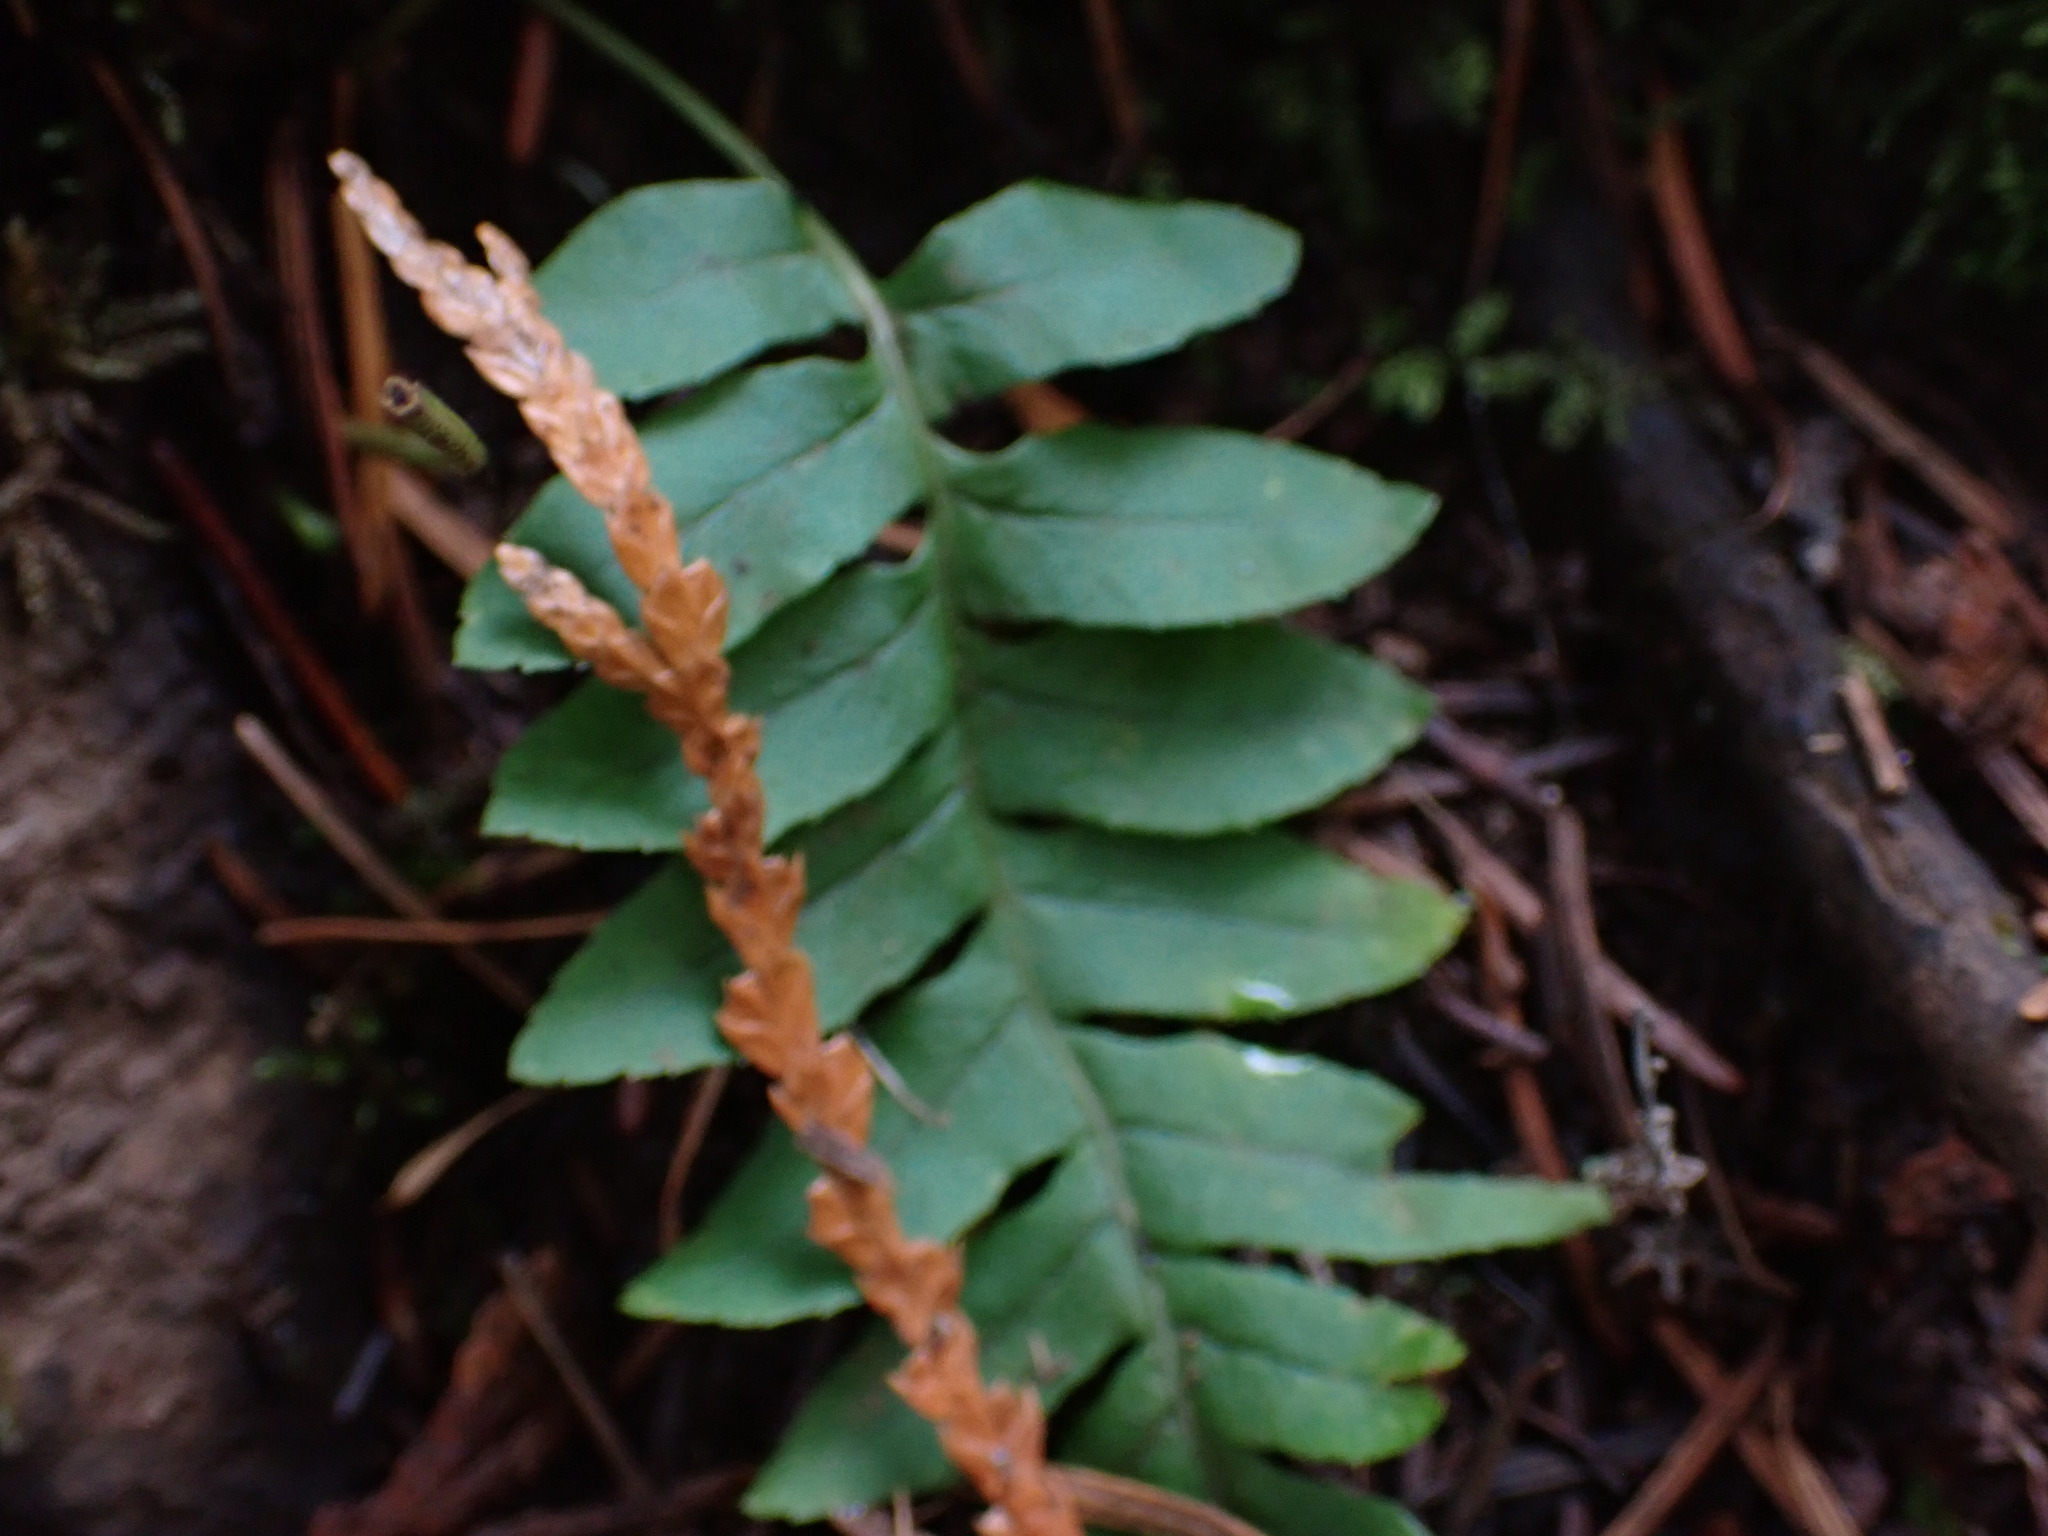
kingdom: Plantae
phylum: Tracheophyta
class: Polypodiopsida
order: Polypodiales
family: Polypodiaceae
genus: Polypodium
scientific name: Polypodium glycyrrhiza
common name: Licorice fern
